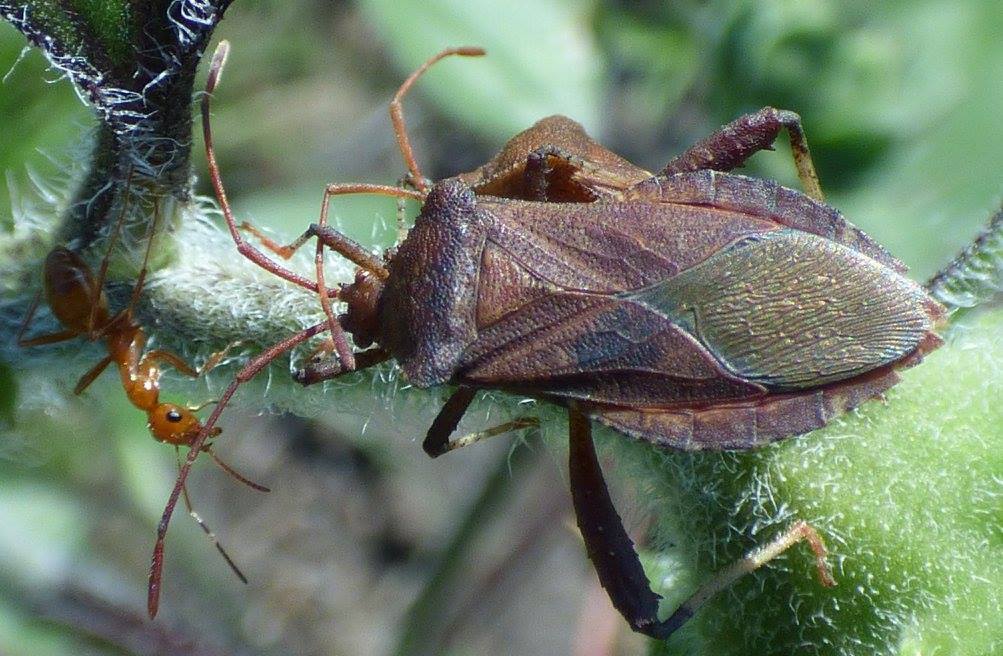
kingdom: Animalia
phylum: Arthropoda
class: Insecta
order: Hemiptera
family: Coreidae
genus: Euthochtha
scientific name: Euthochtha galeator
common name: Helmeted squash bug
